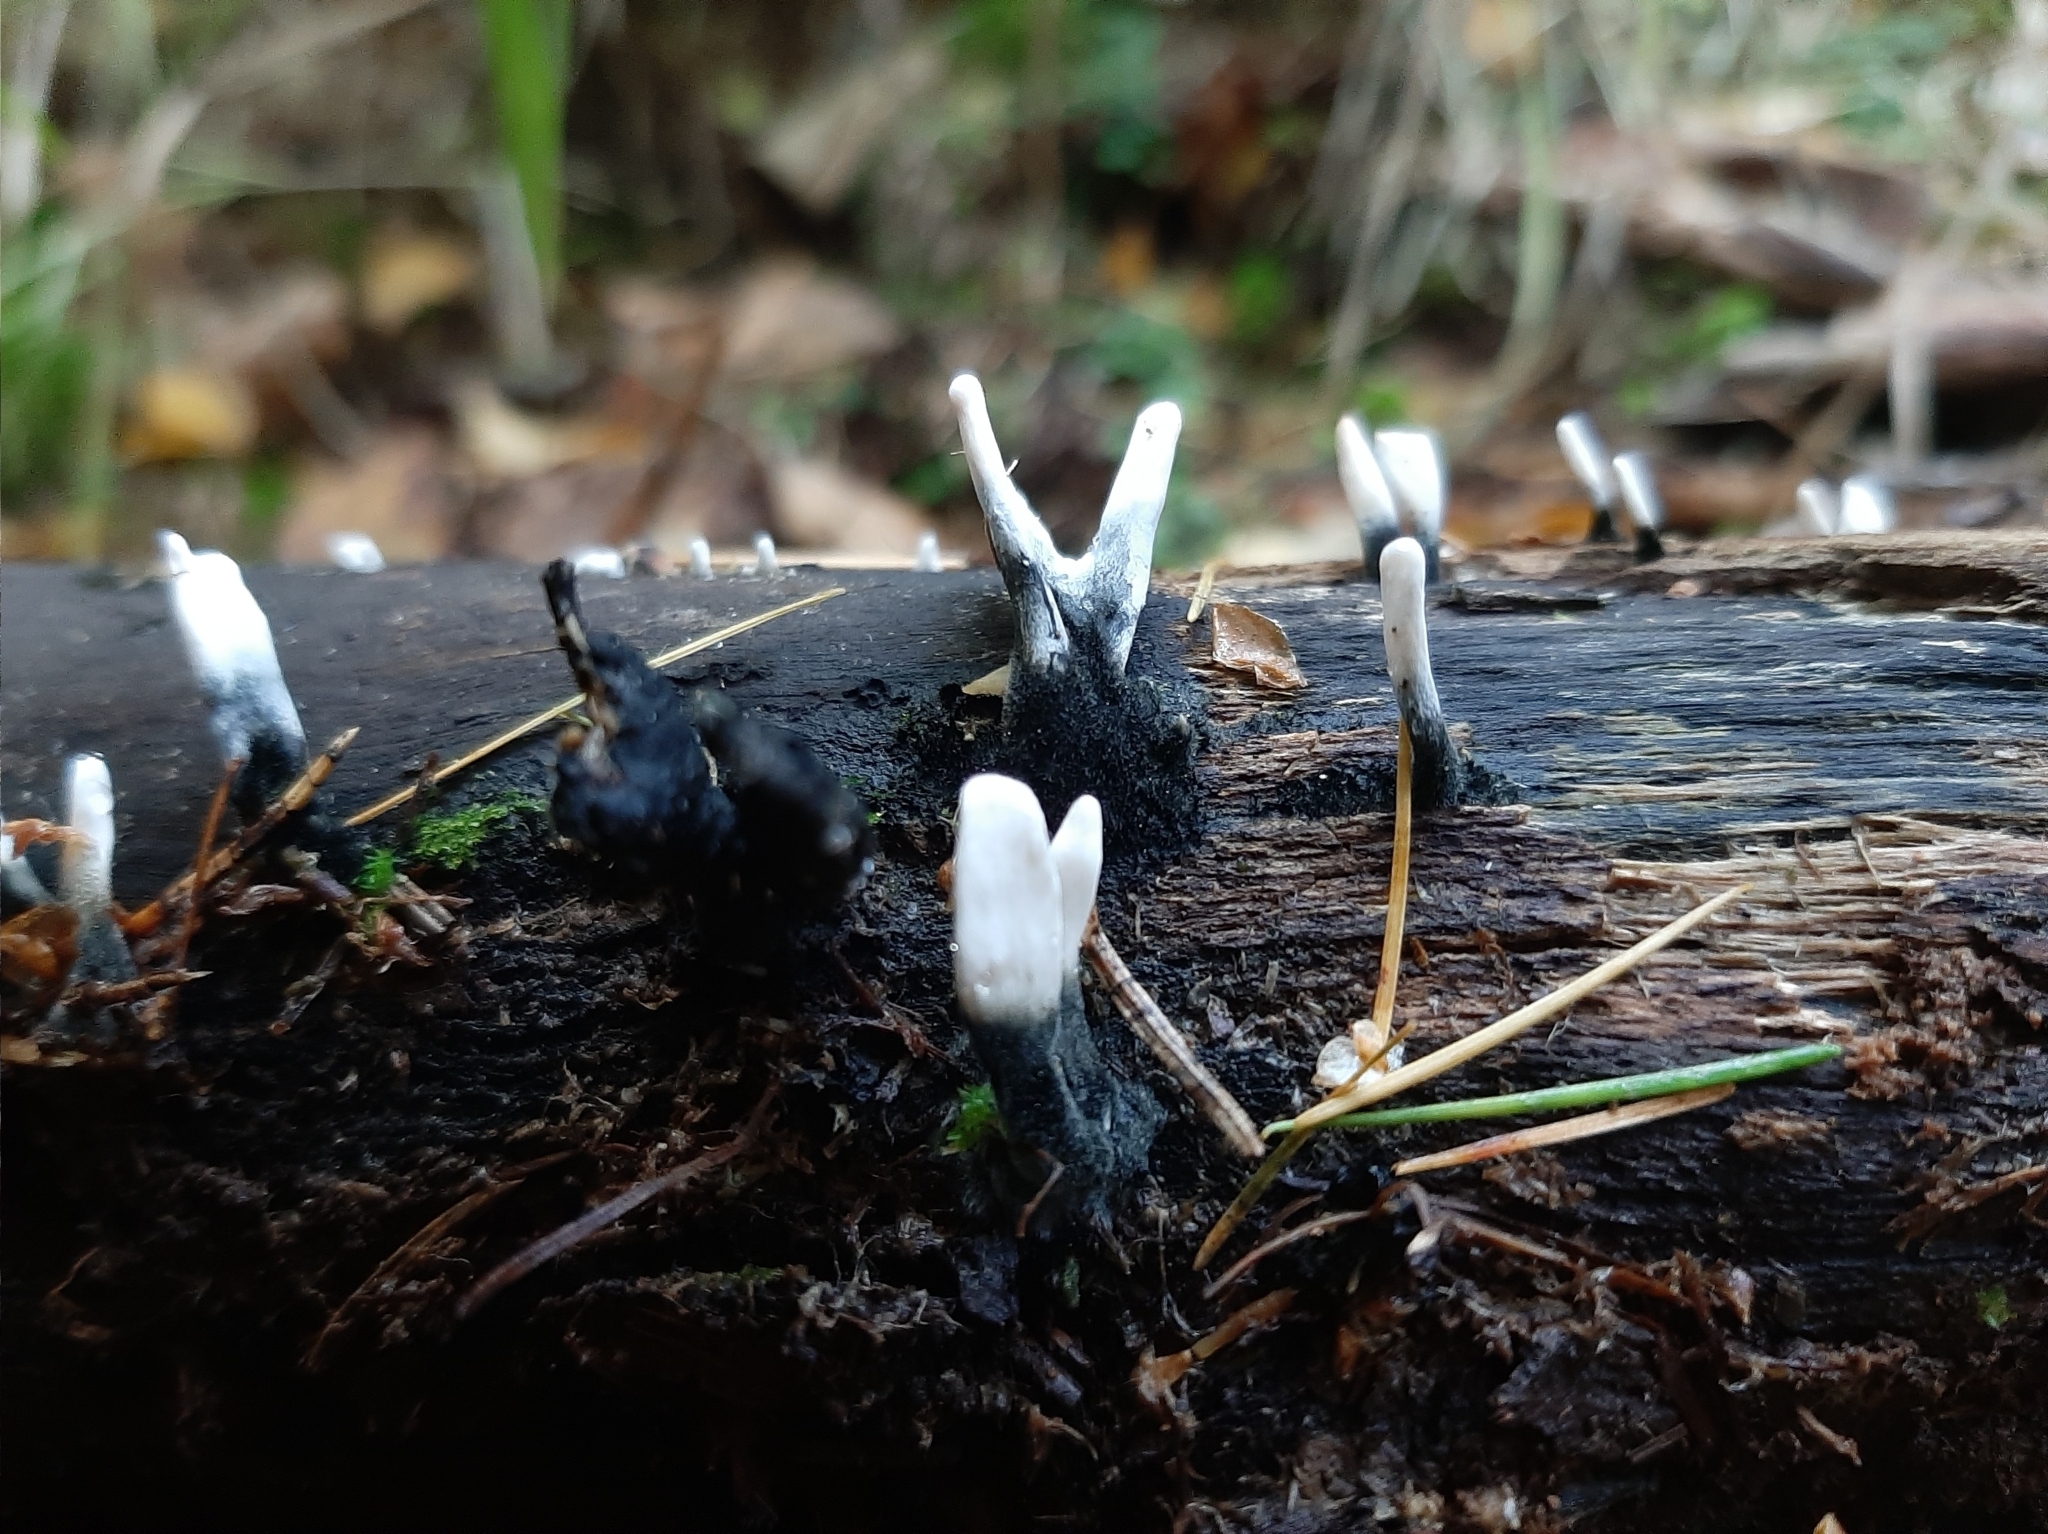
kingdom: Fungi
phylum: Ascomycota
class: Sordariomycetes
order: Xylariales
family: Xylariaceae
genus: Xylaria
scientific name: Xylaria hypoxylon
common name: Candle-snuff fungus
